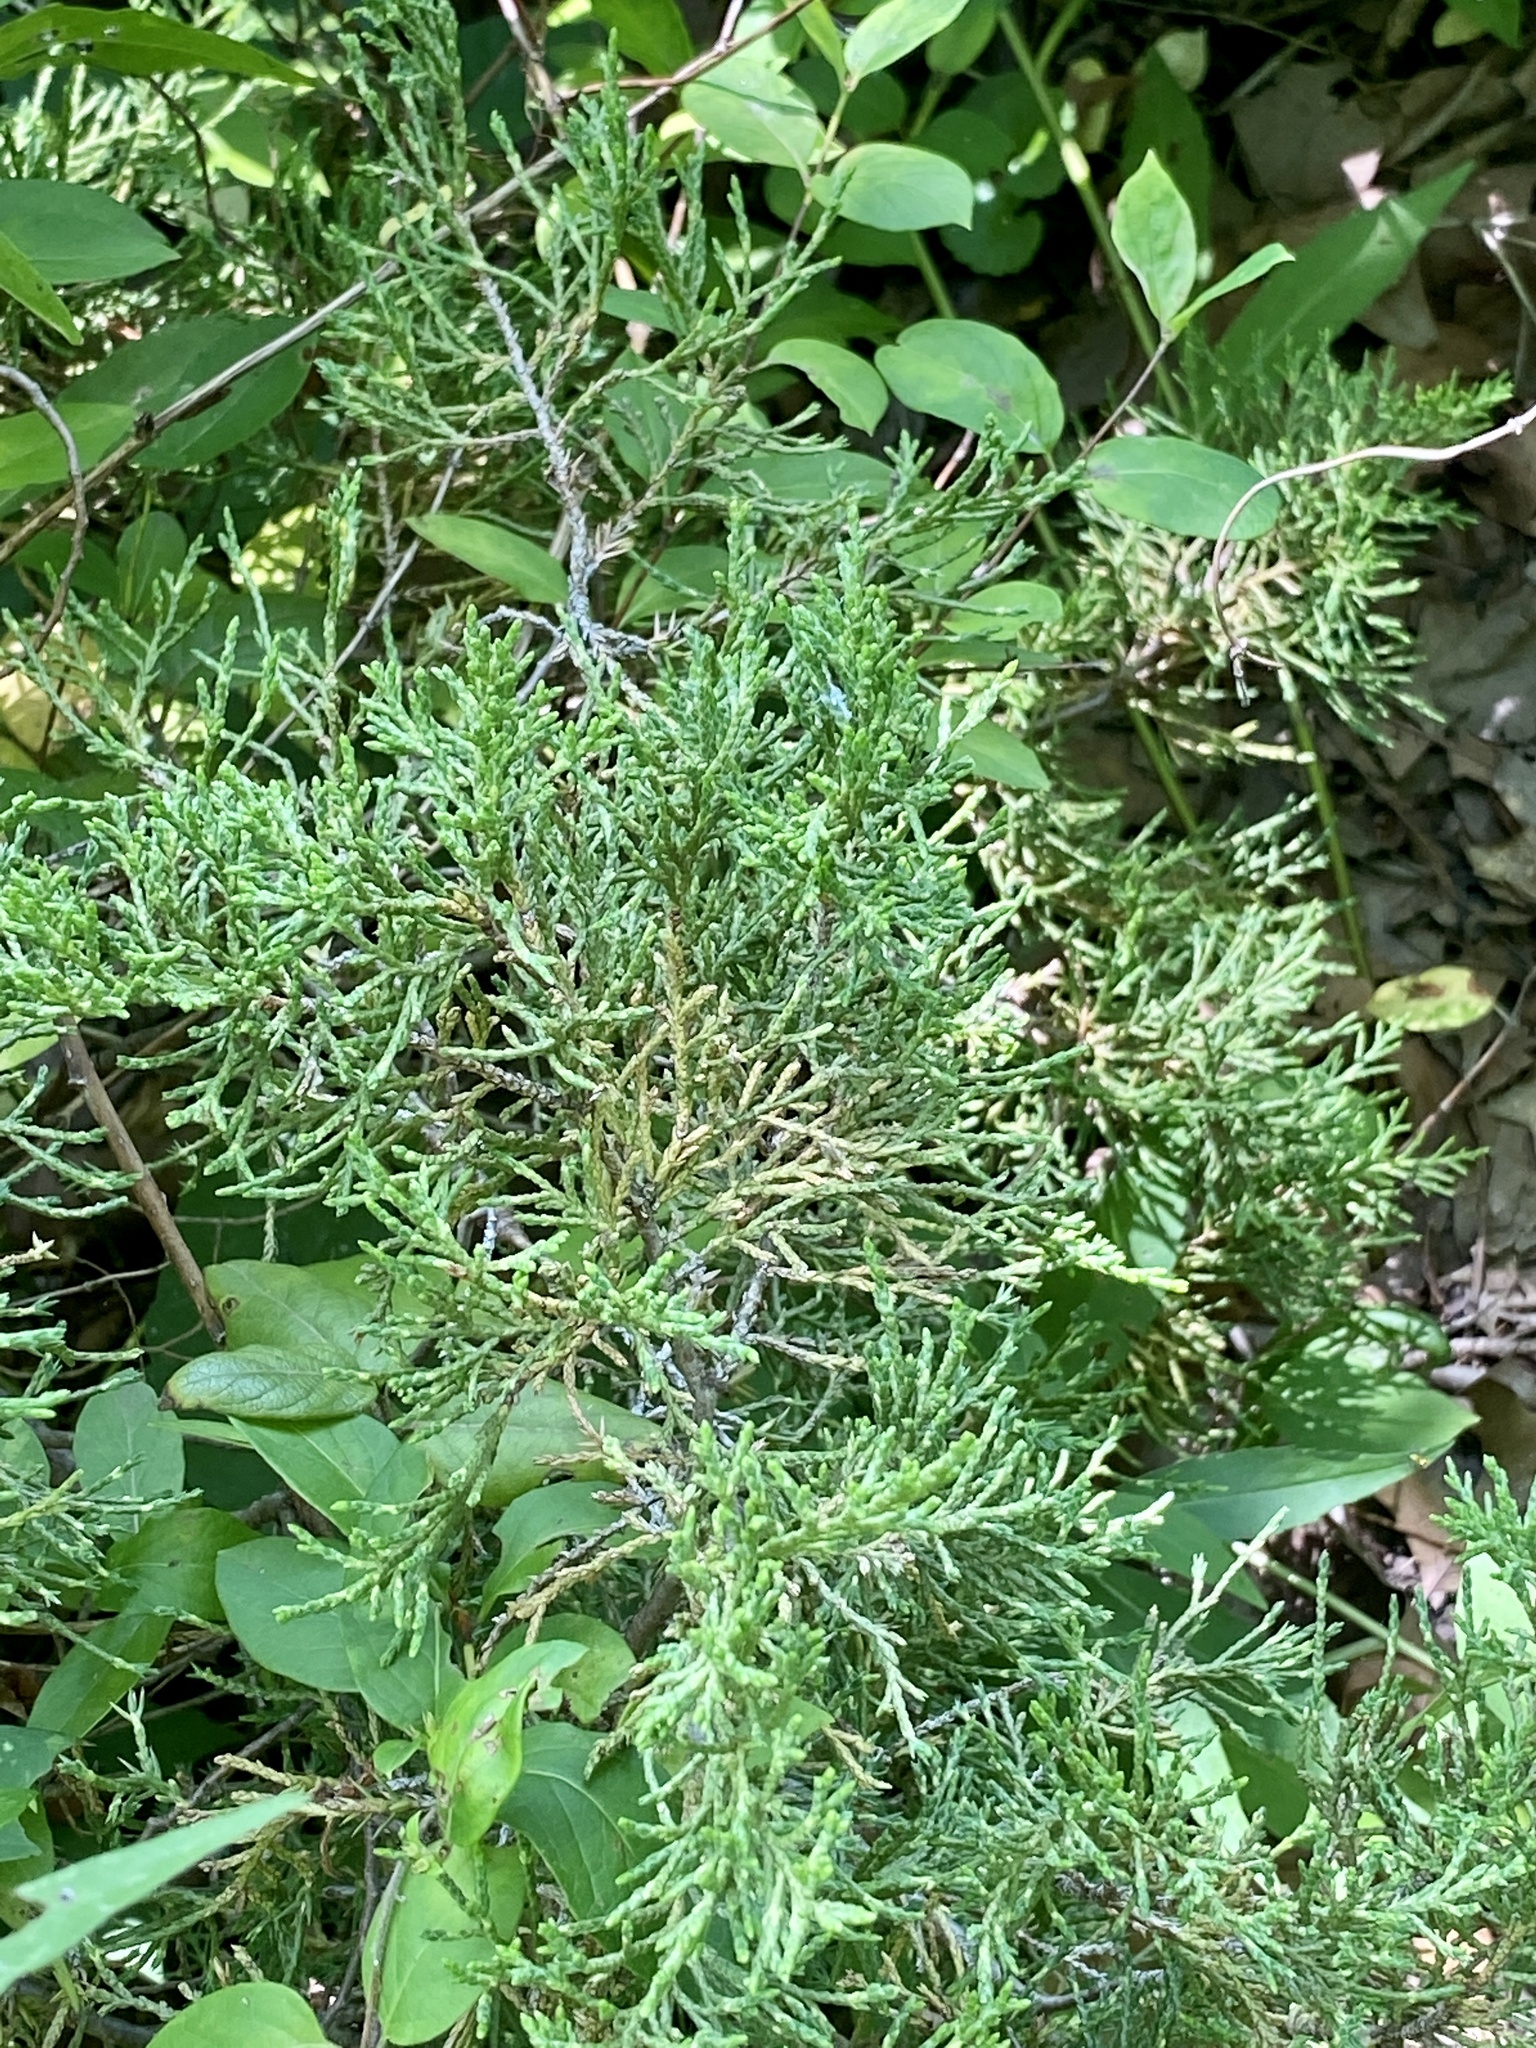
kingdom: Plantae
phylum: Tracheophyta
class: Pinopsida
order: Pinales
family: Cupressaceae
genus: Juniperus
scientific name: Juniperus virginiana
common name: Red juniper
